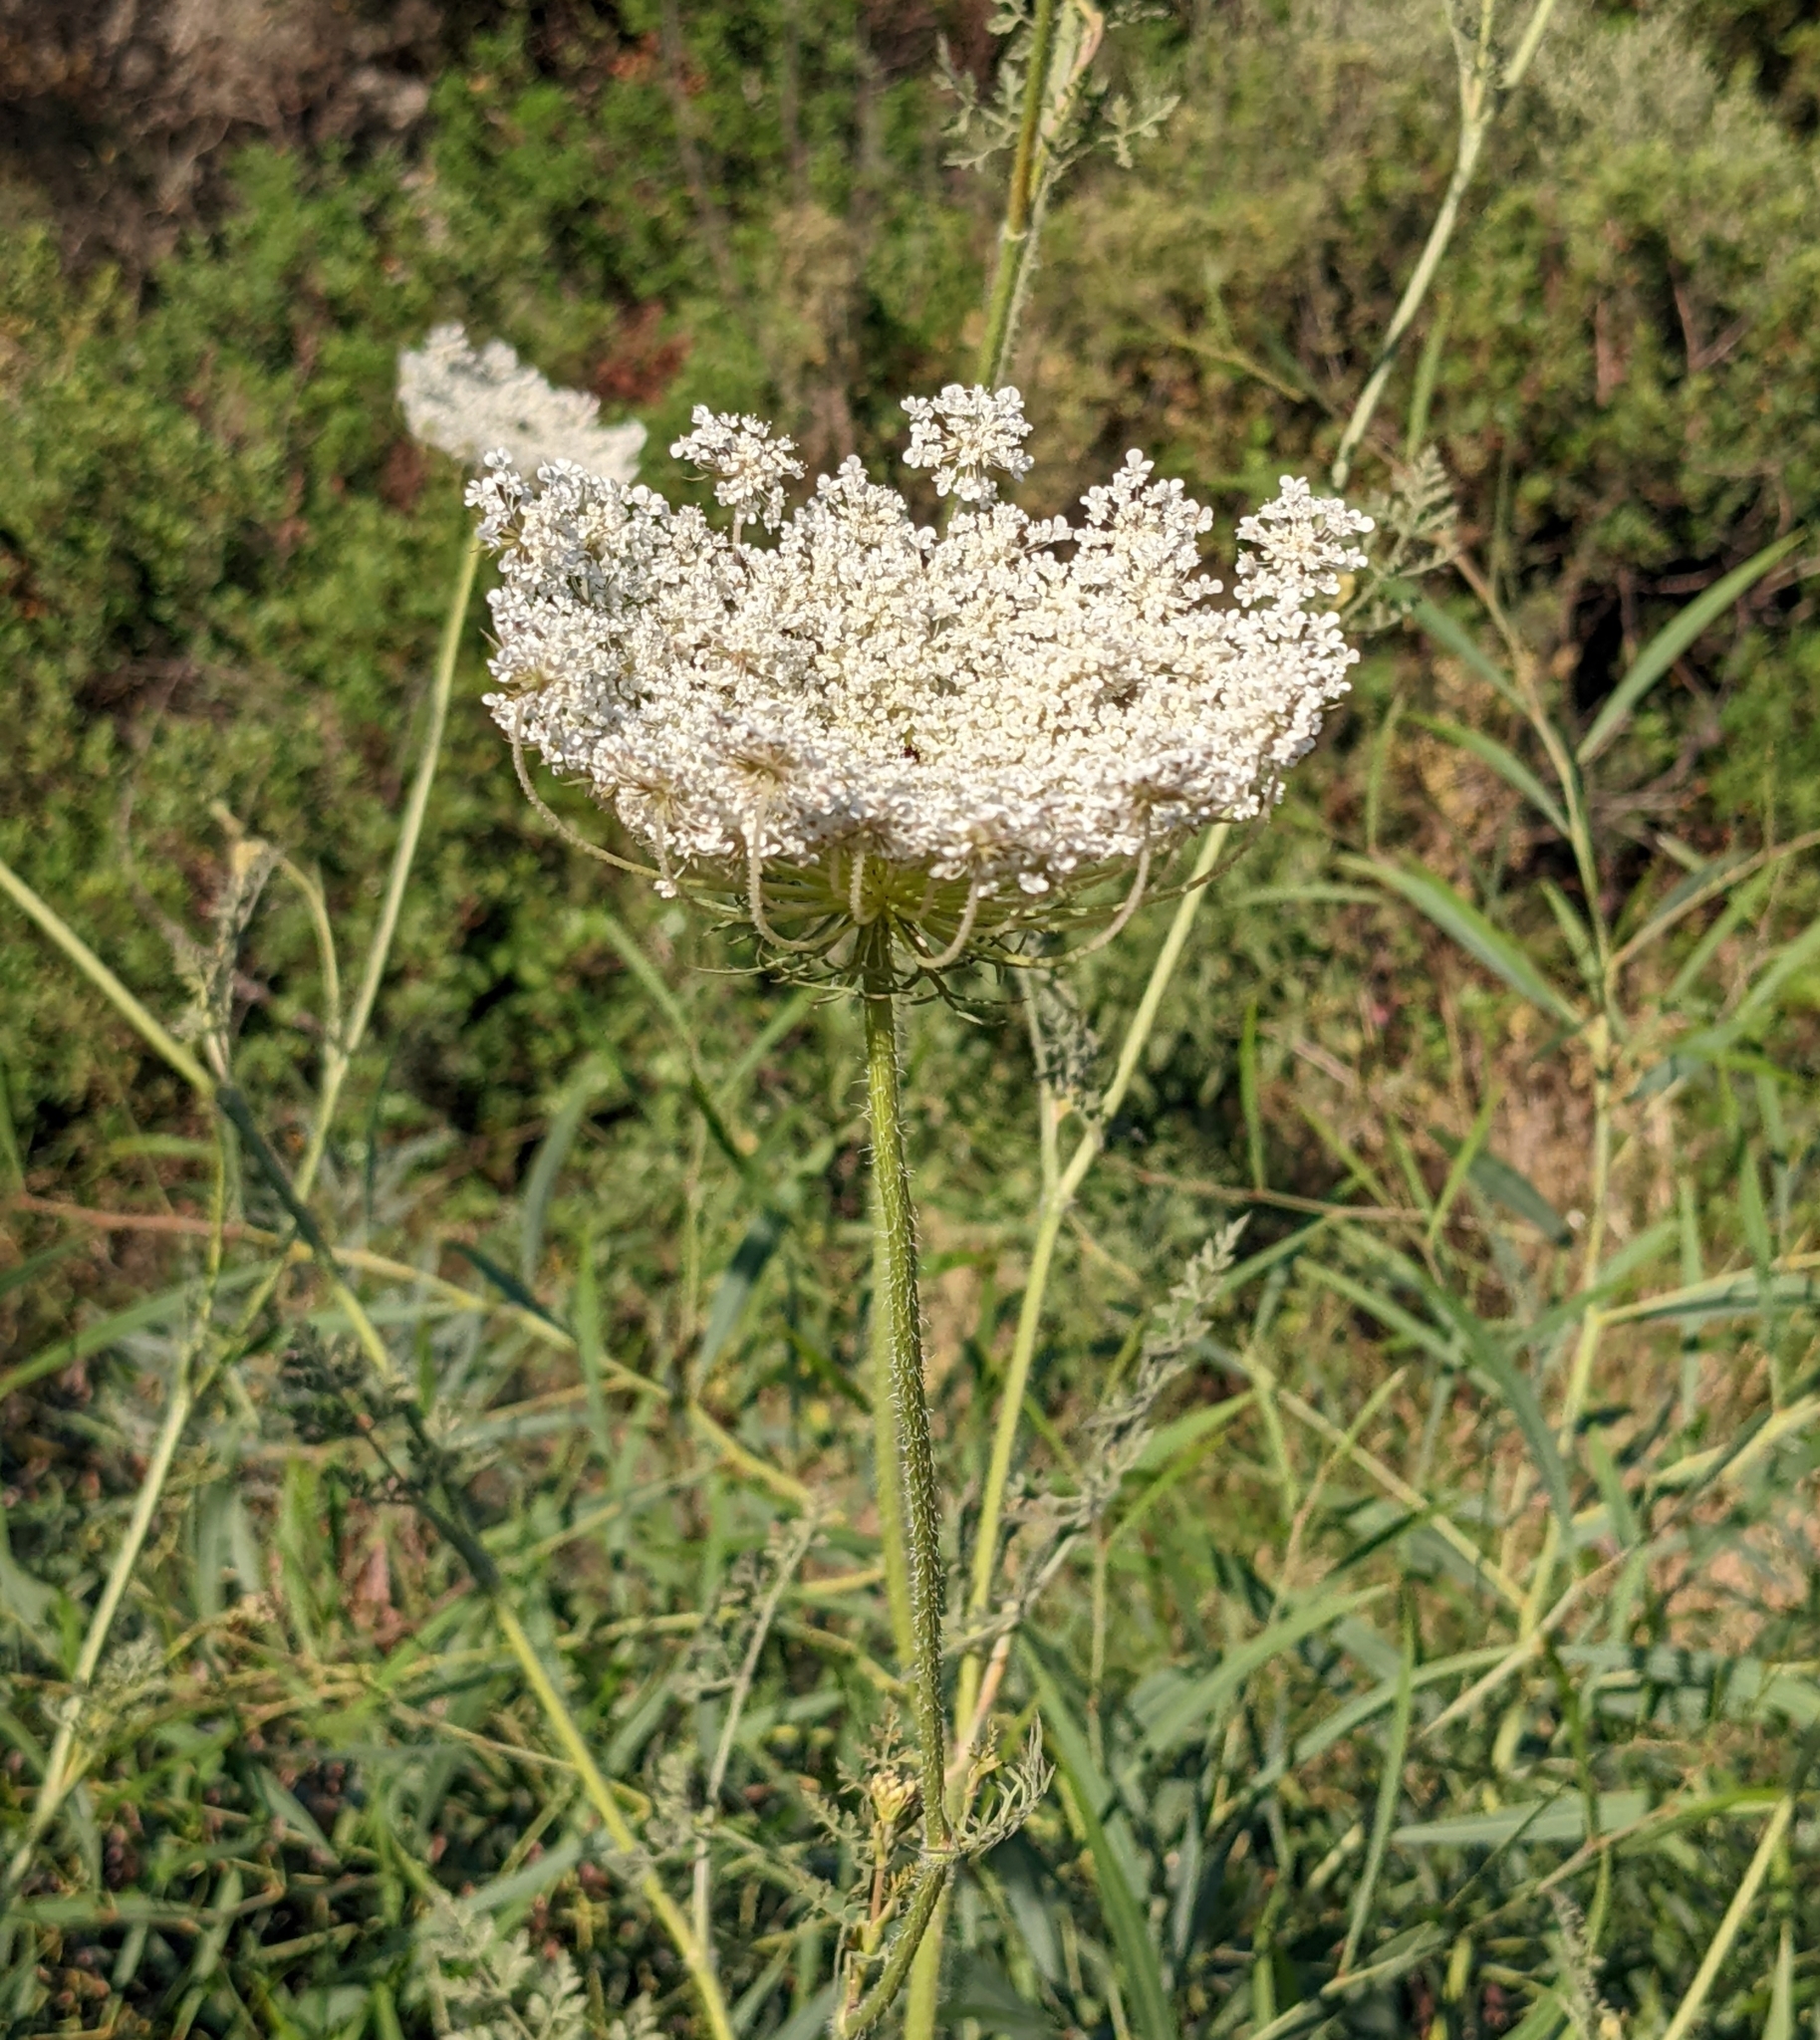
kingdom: Plantae
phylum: Tracheophyta
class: Magnoliopsida
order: Apiales
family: Apiaceae
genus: Daucus
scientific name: Daucus carota
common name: Wild carrot
